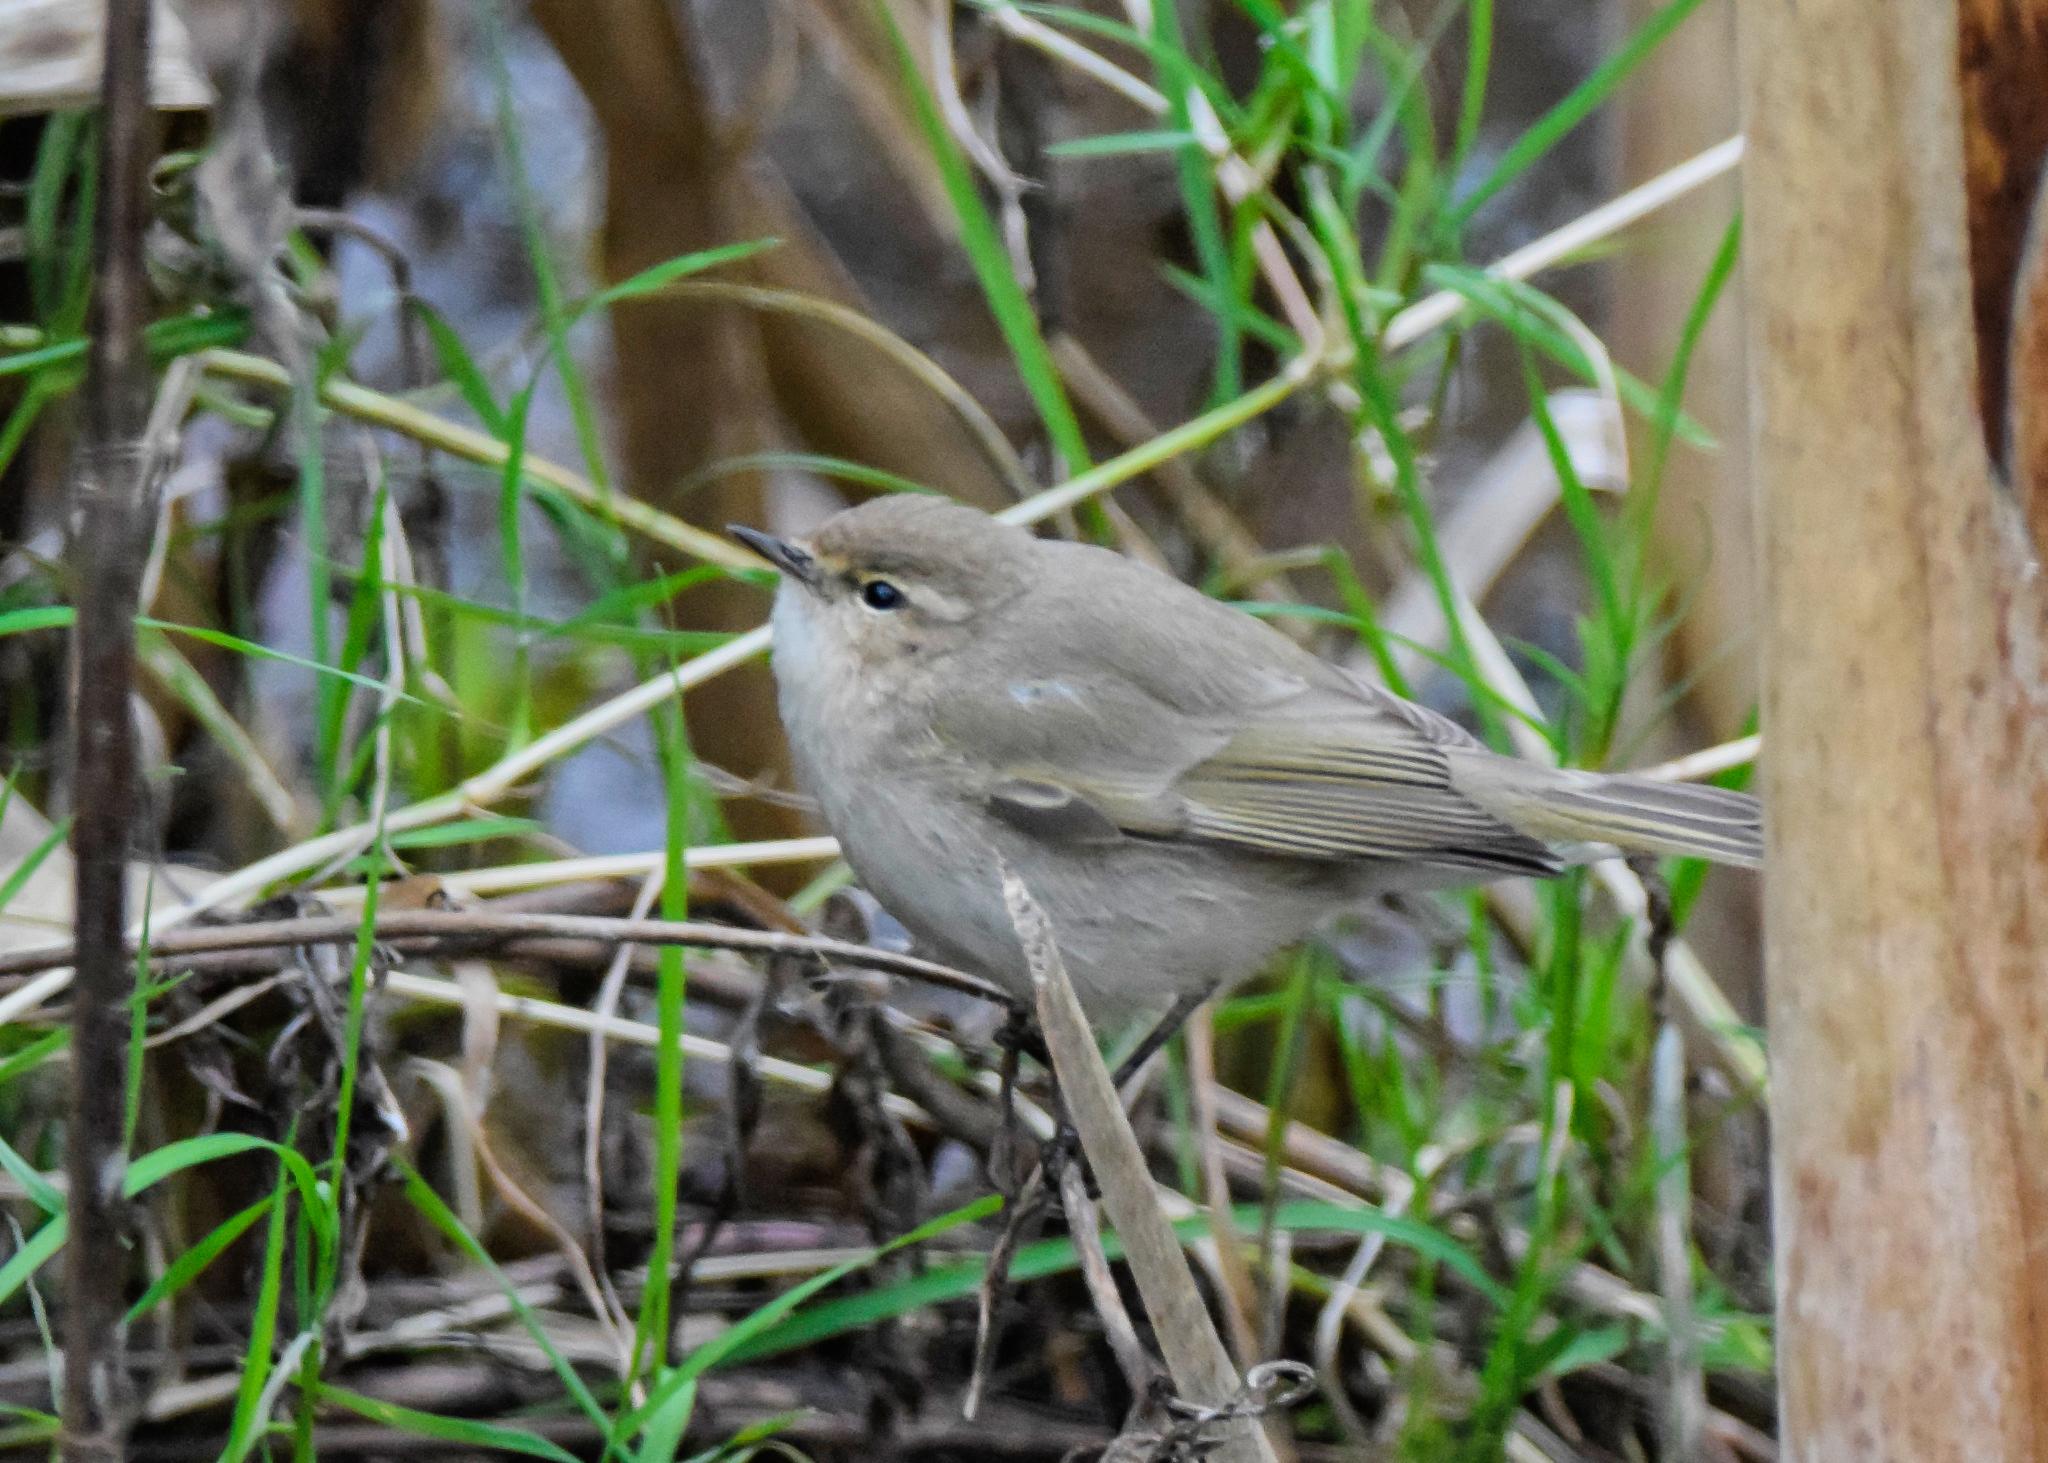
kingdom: Animalia
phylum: Chordata
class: Aves
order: Passeriformes
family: Phylloscopidae
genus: Phylloscopus
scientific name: Phylloscopus collybita
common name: Common chiffchaff
